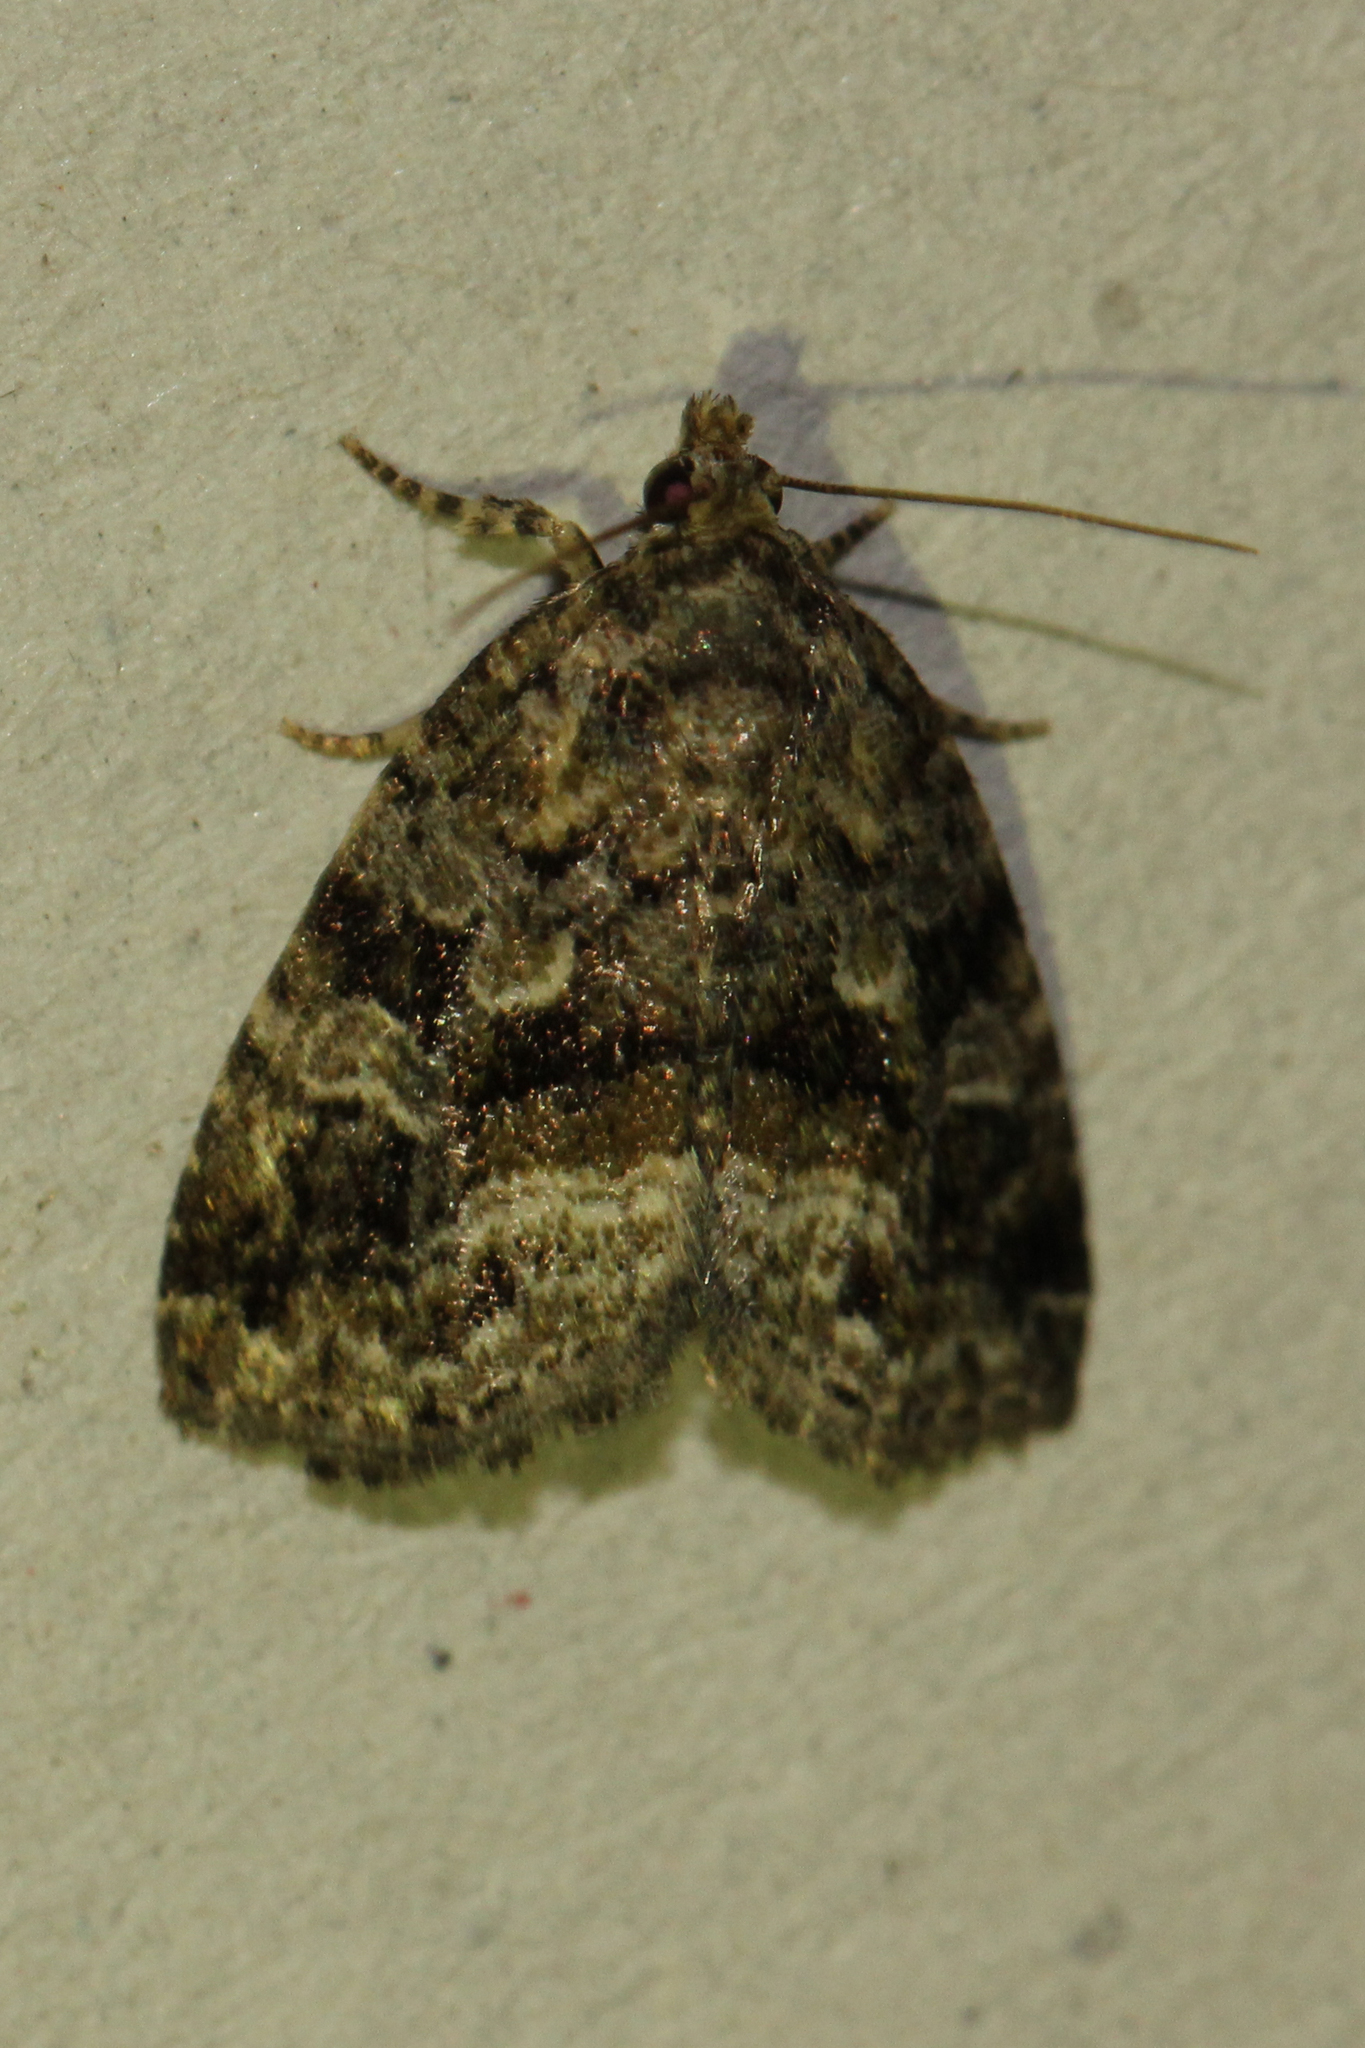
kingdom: Animalia
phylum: Arthropoda
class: Insecta
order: Lepidoptera
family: Noctuidae
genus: Protodeltote
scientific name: Protodeltote muscosula
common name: Large mossy glyph
